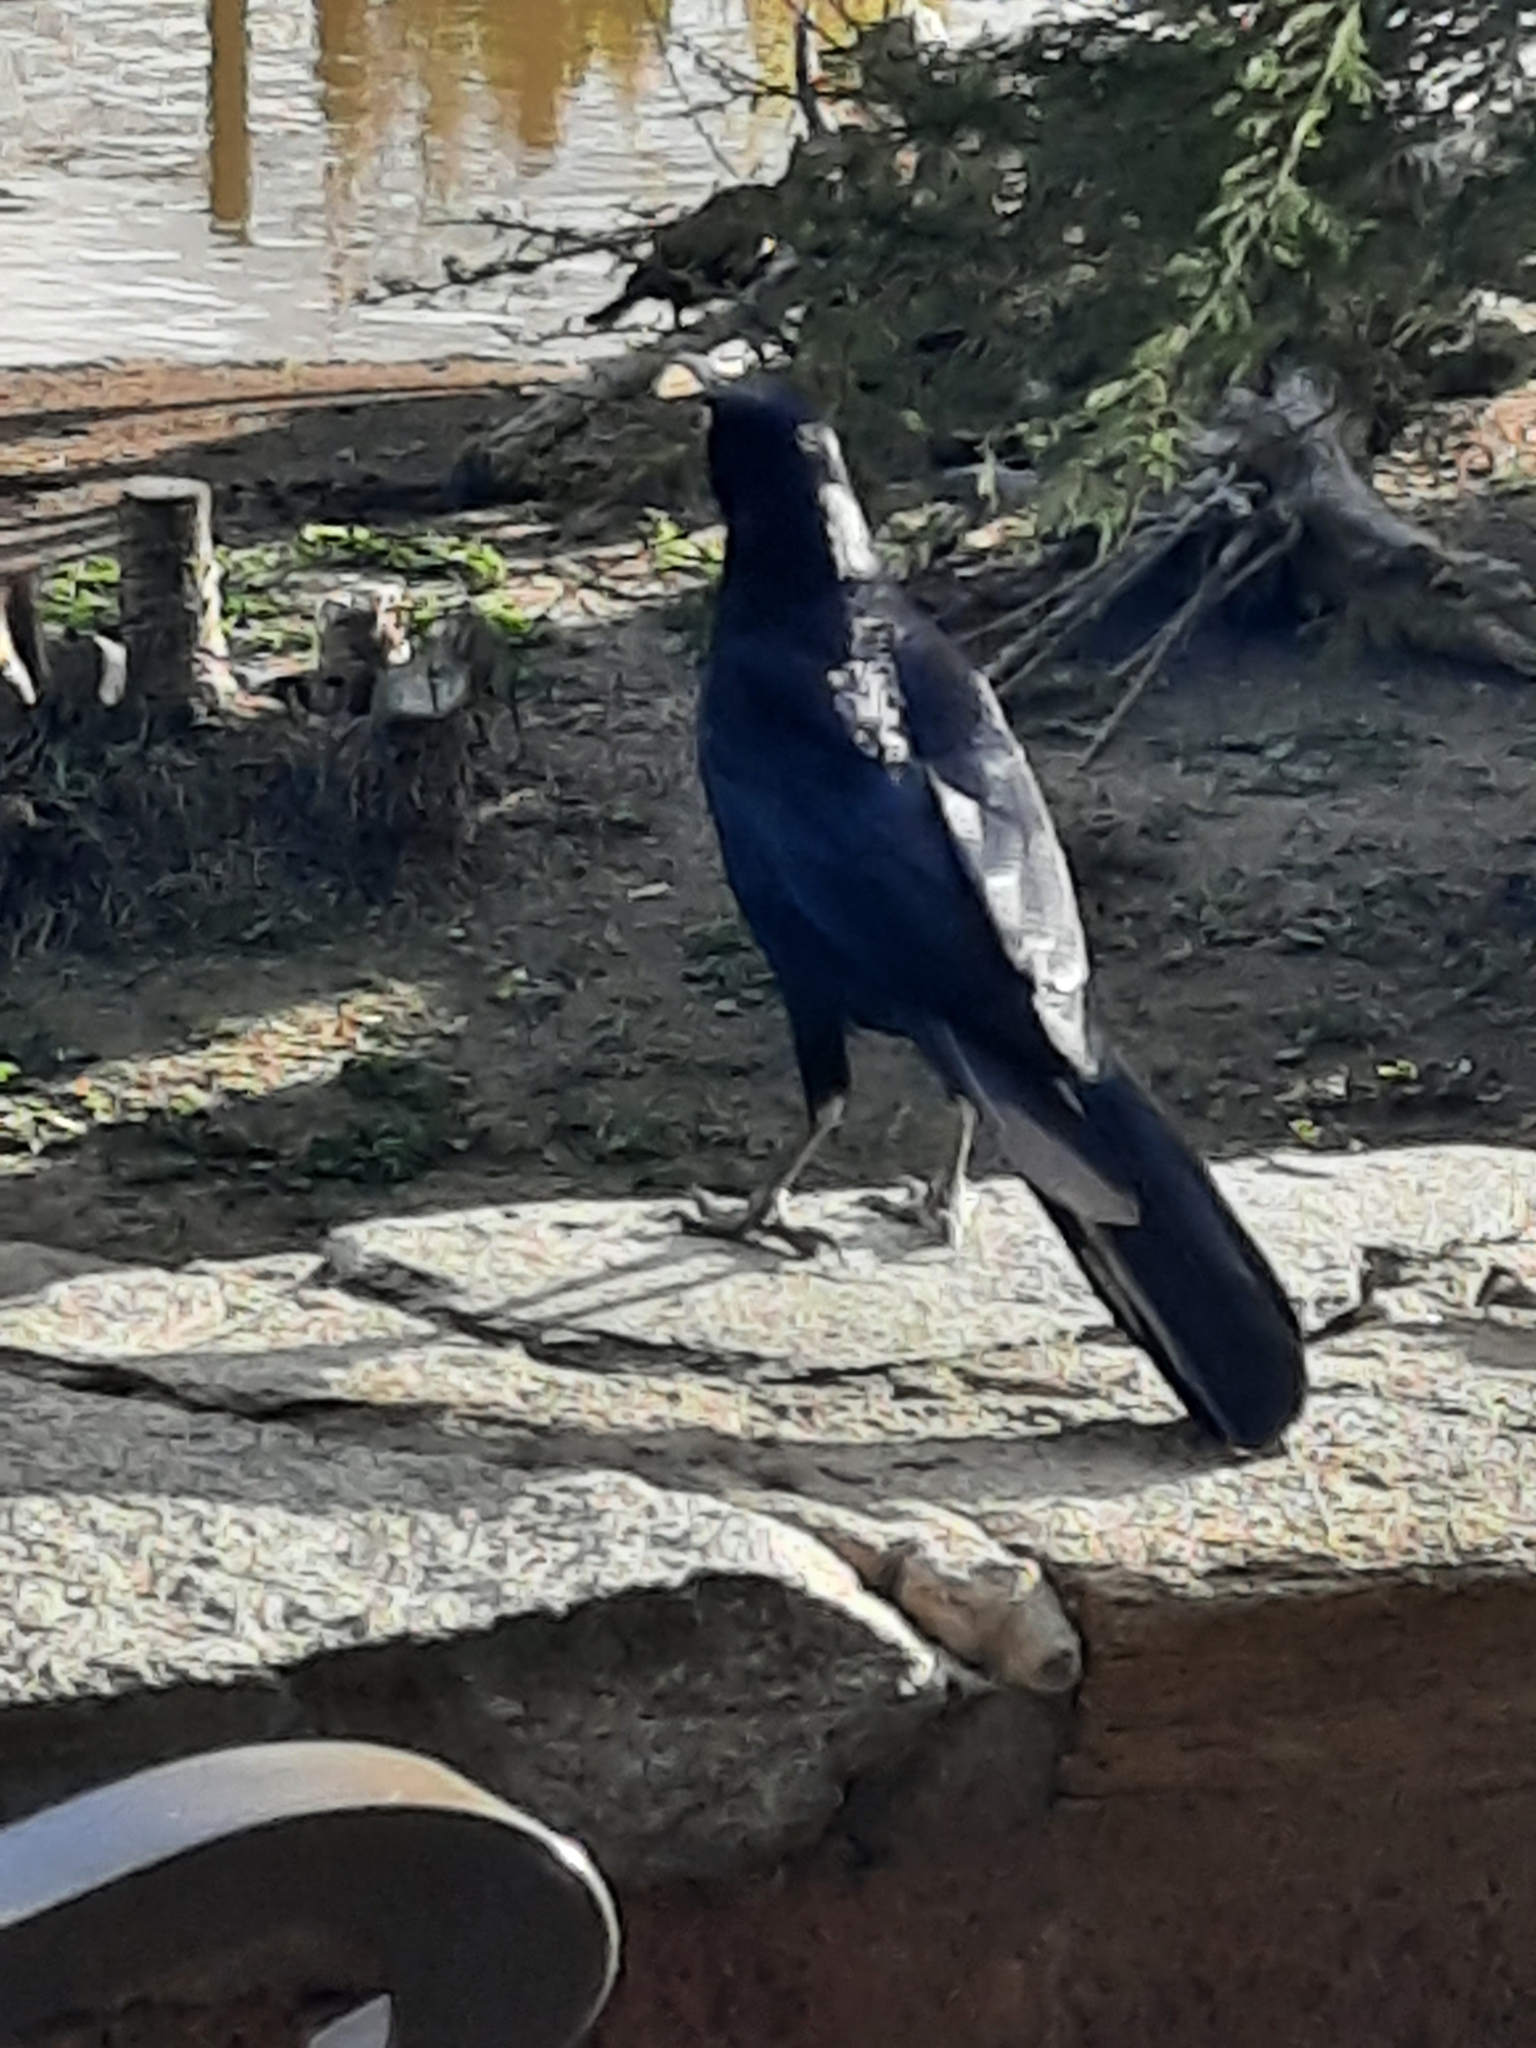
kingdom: Animalia
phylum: Chordata
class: Aves
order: Passeriformes
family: Icteridae
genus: Quiscalus
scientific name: Quiscalus mexicanus
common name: Great-tailed grackle
